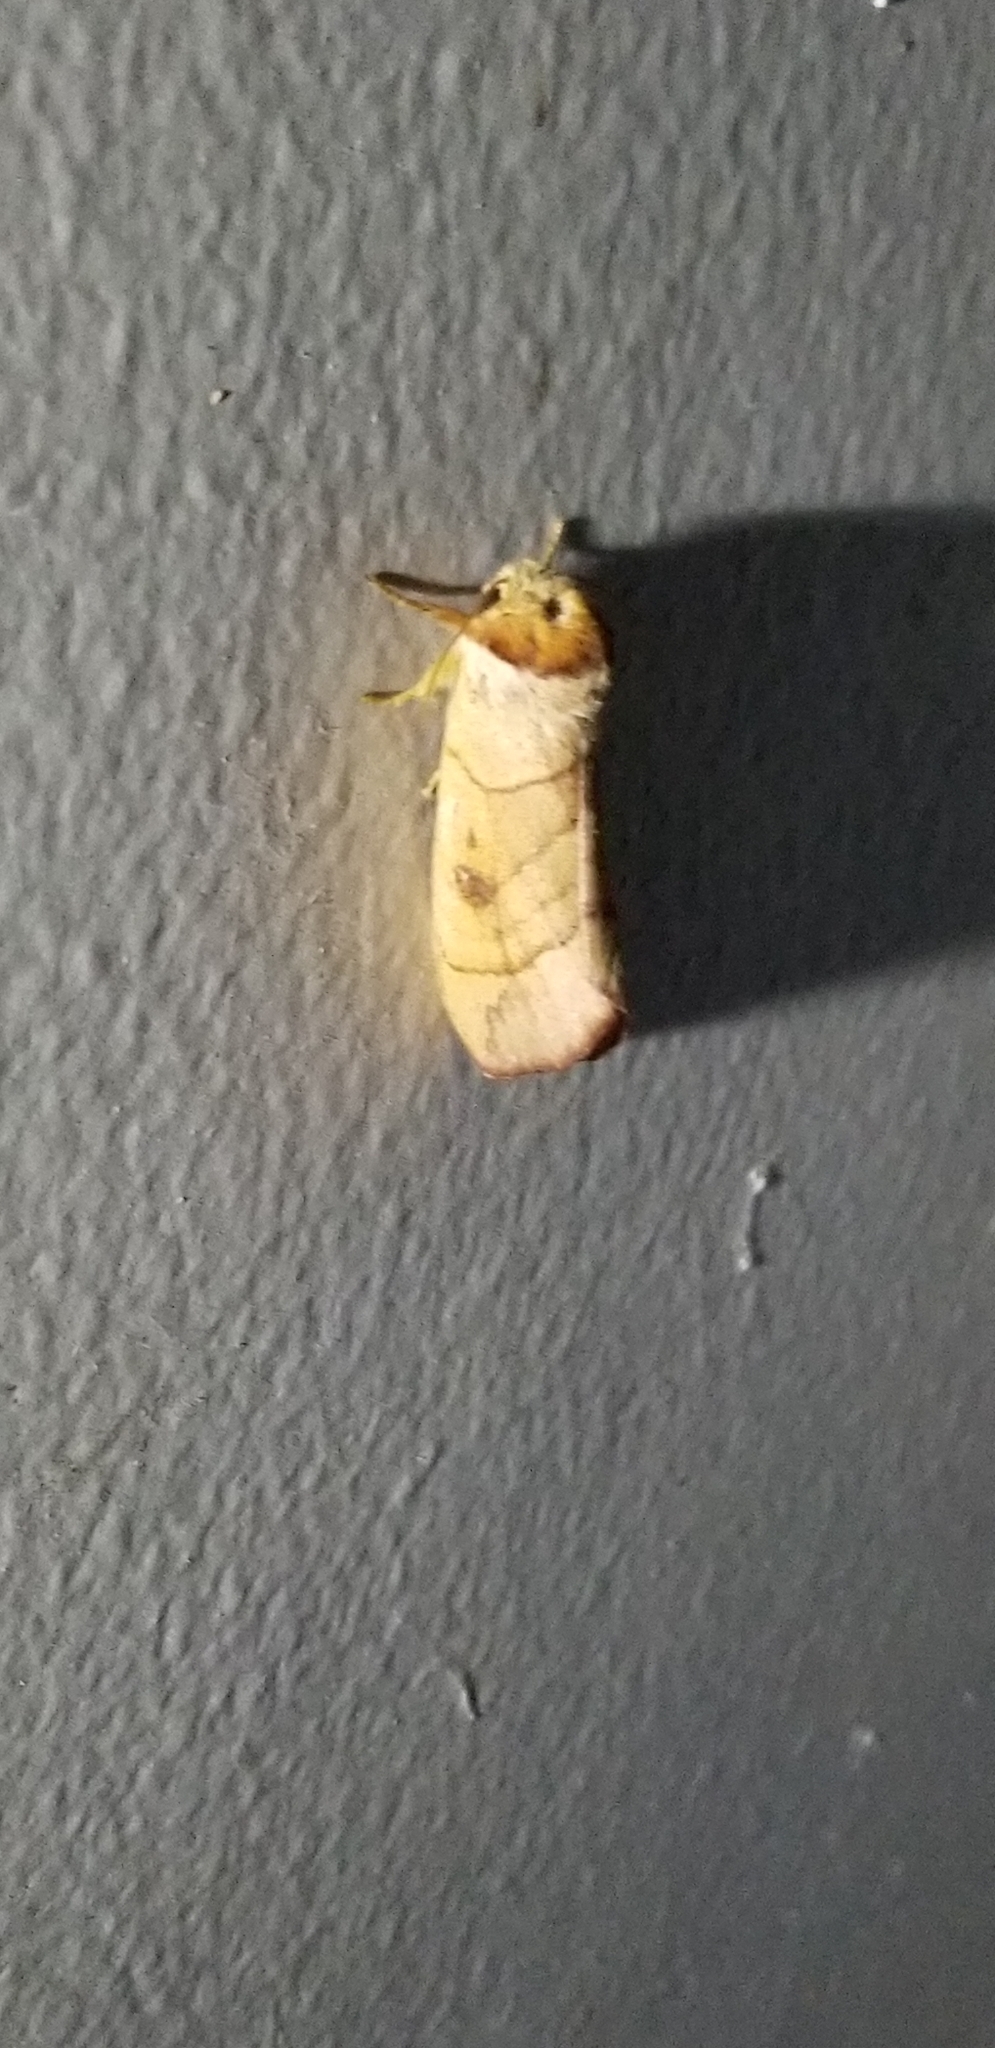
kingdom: Animalia
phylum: Arthropoda
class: Insecta
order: Lepidoptera
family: Notodontidae
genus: Datana
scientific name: Datana perspicua
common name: Spotted datana
